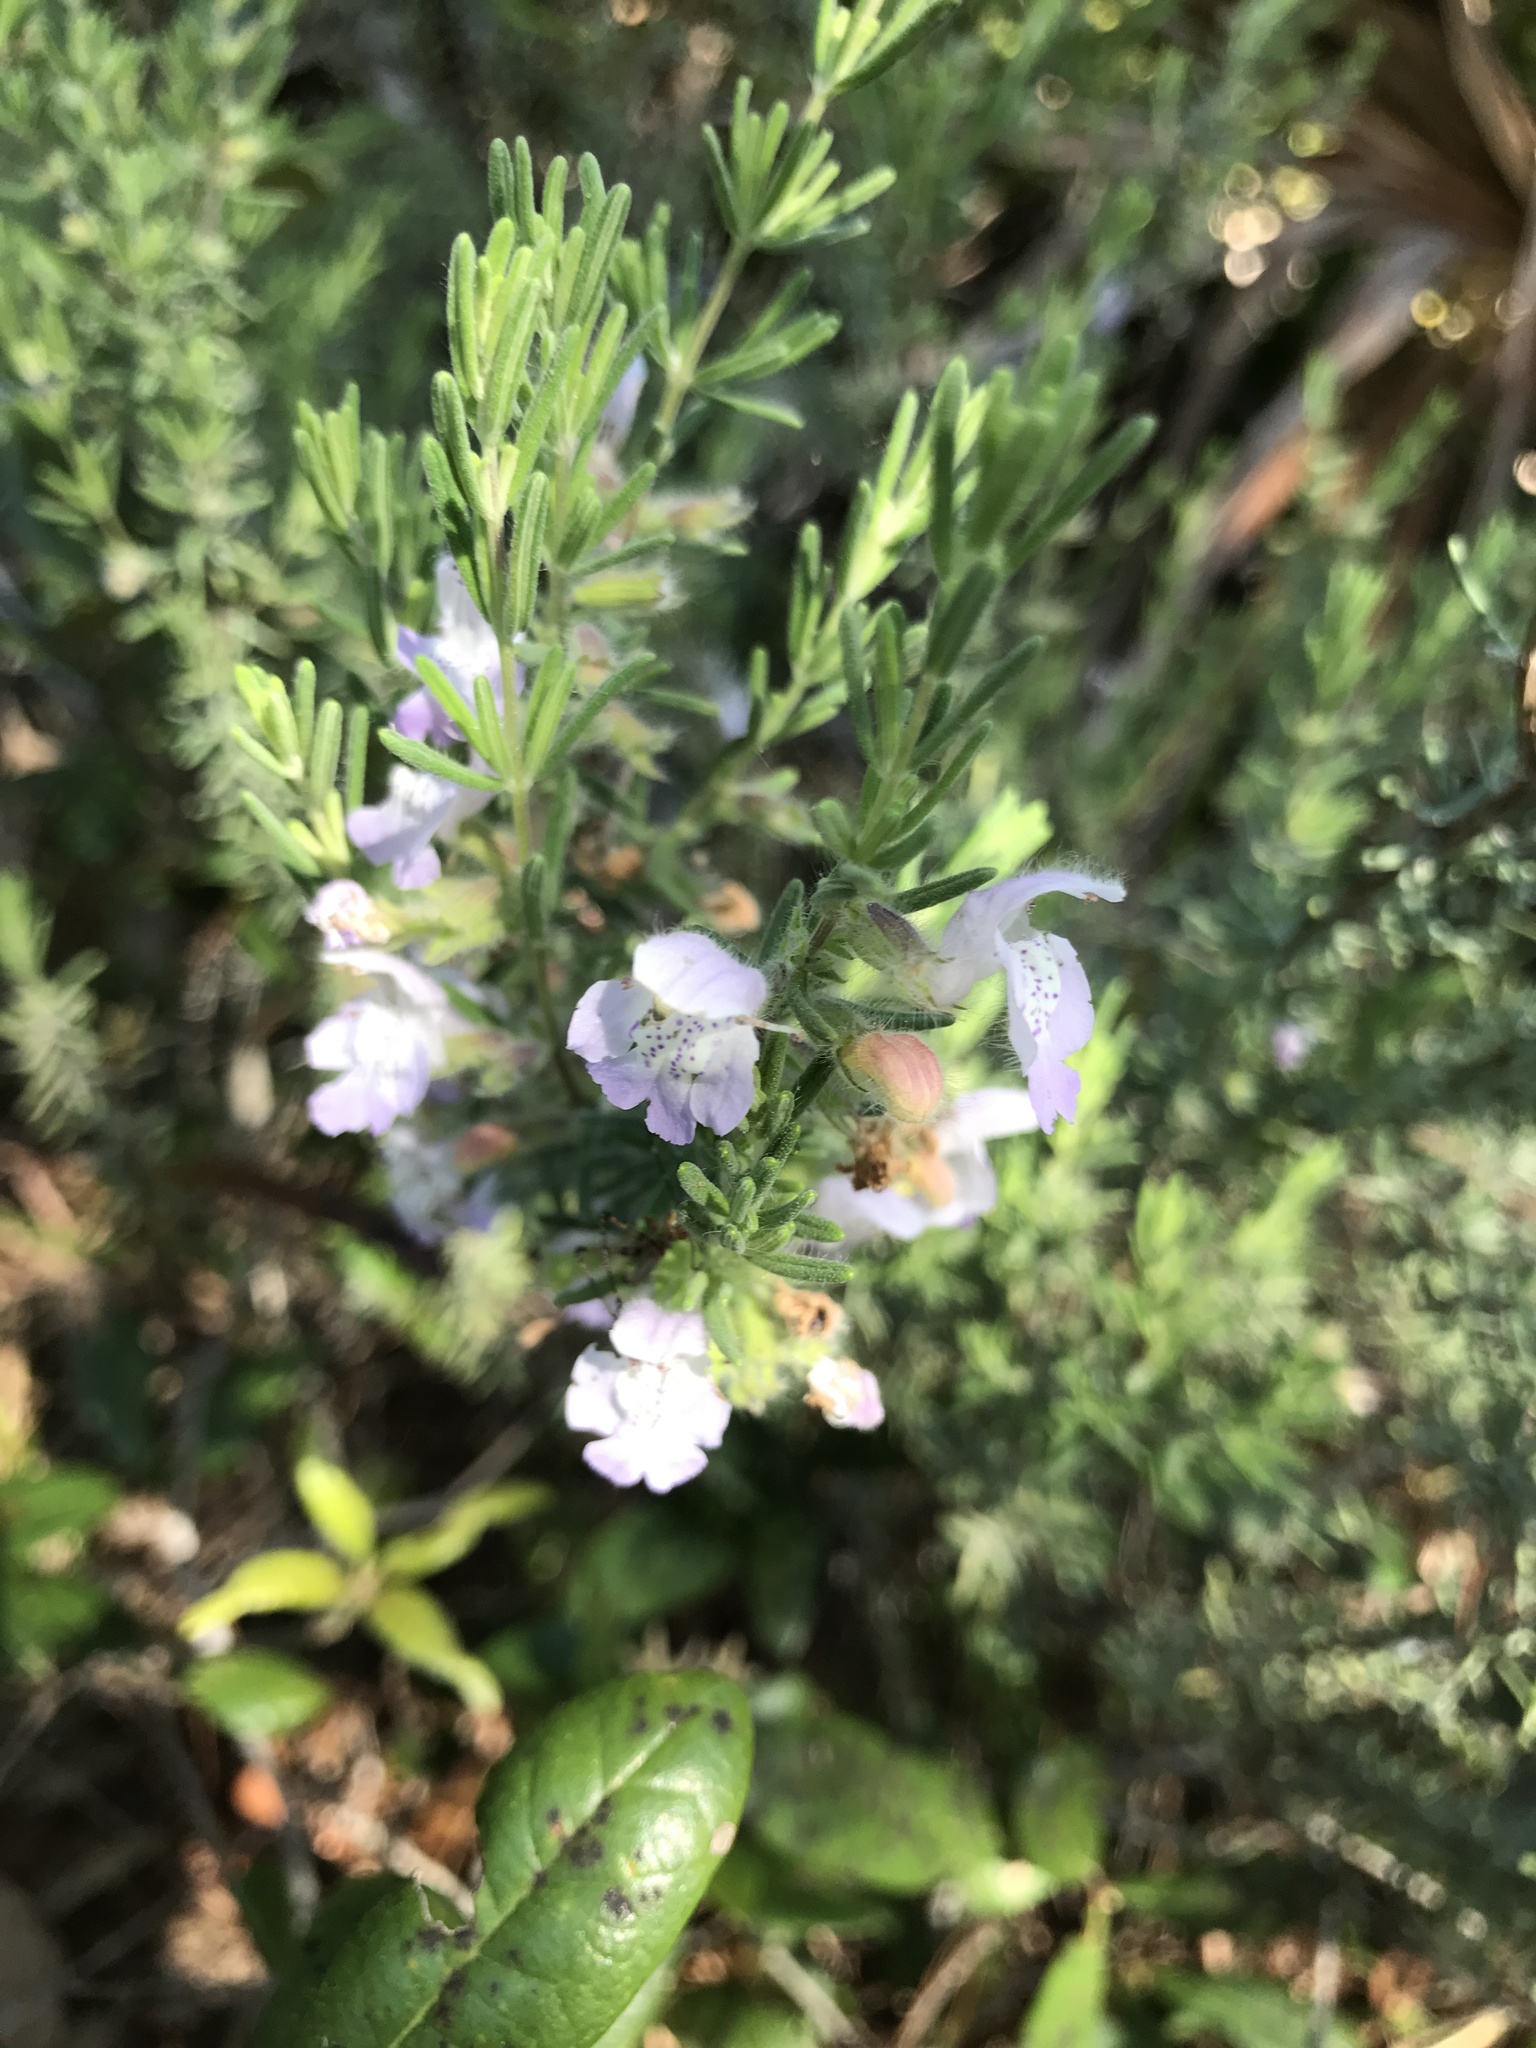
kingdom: Plantae
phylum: Tracheophyta
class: Magnoliopsida
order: Lamiales
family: Lamiaceae
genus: Conradina
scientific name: Conradina canescens
